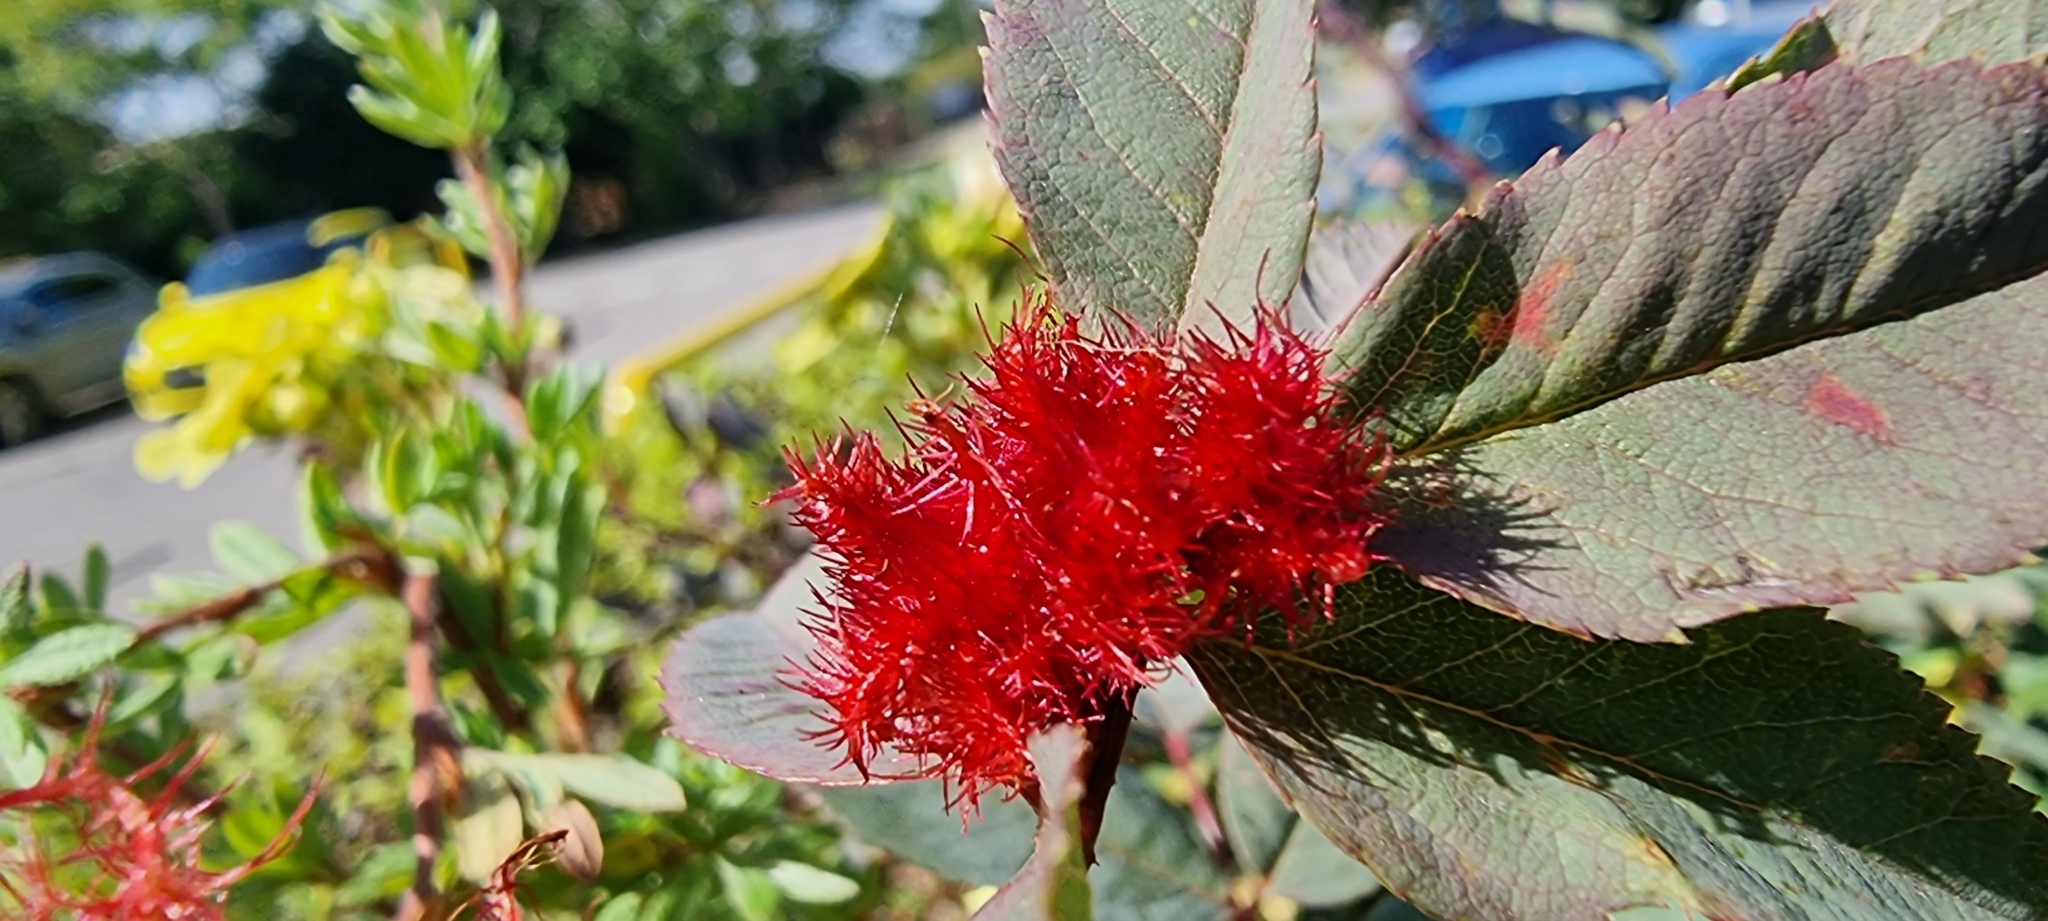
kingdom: Animalia
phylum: Arthropoda
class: Insecta
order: Hymenoptera
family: Cynipidae
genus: Diplolepis
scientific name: Diplolepis rosae
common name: Bedeguar gall
